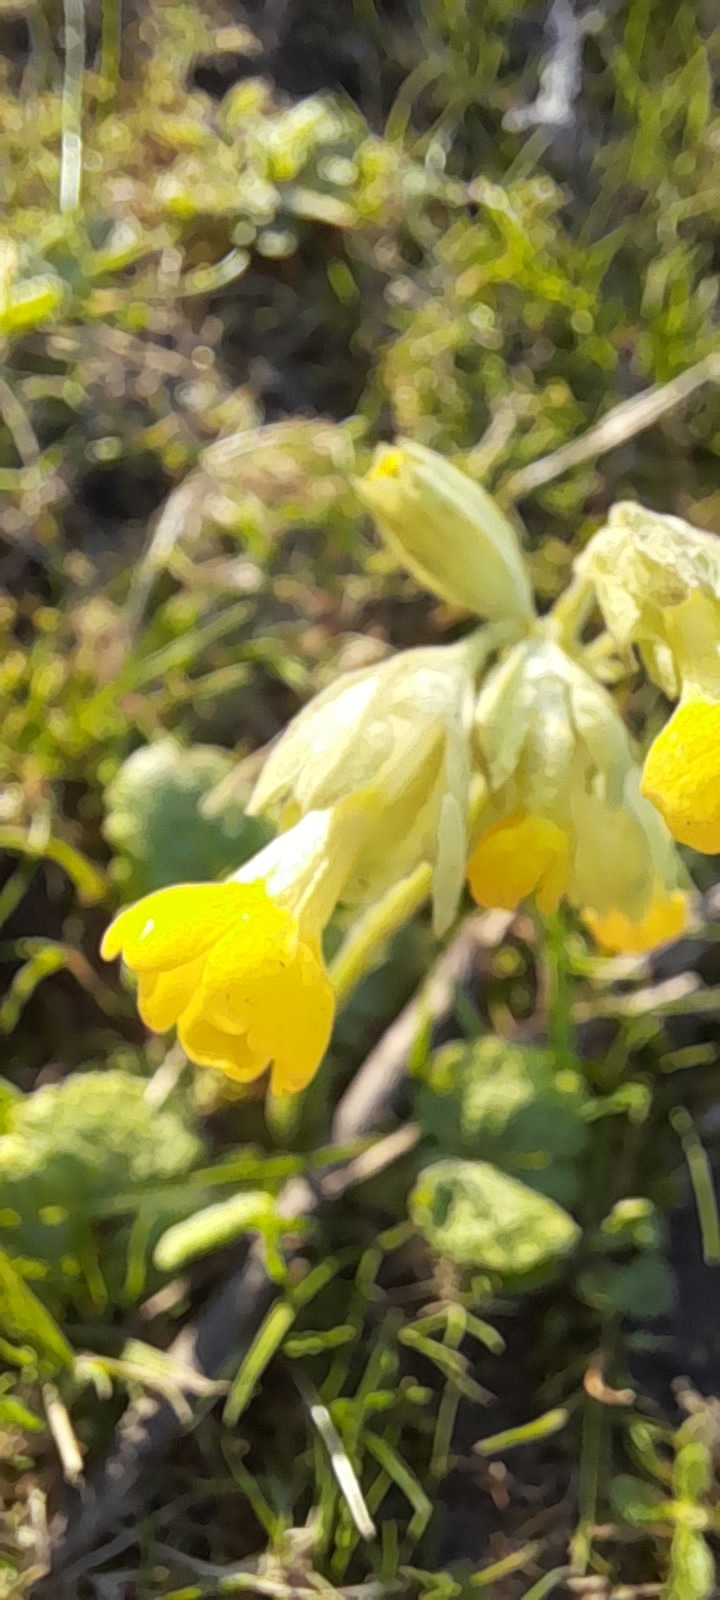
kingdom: Plantae
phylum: Tracheophyta
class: Magnoliopsida
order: Ericales
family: Primulaceae
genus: Primula
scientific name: Primula veris
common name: Cowslip
